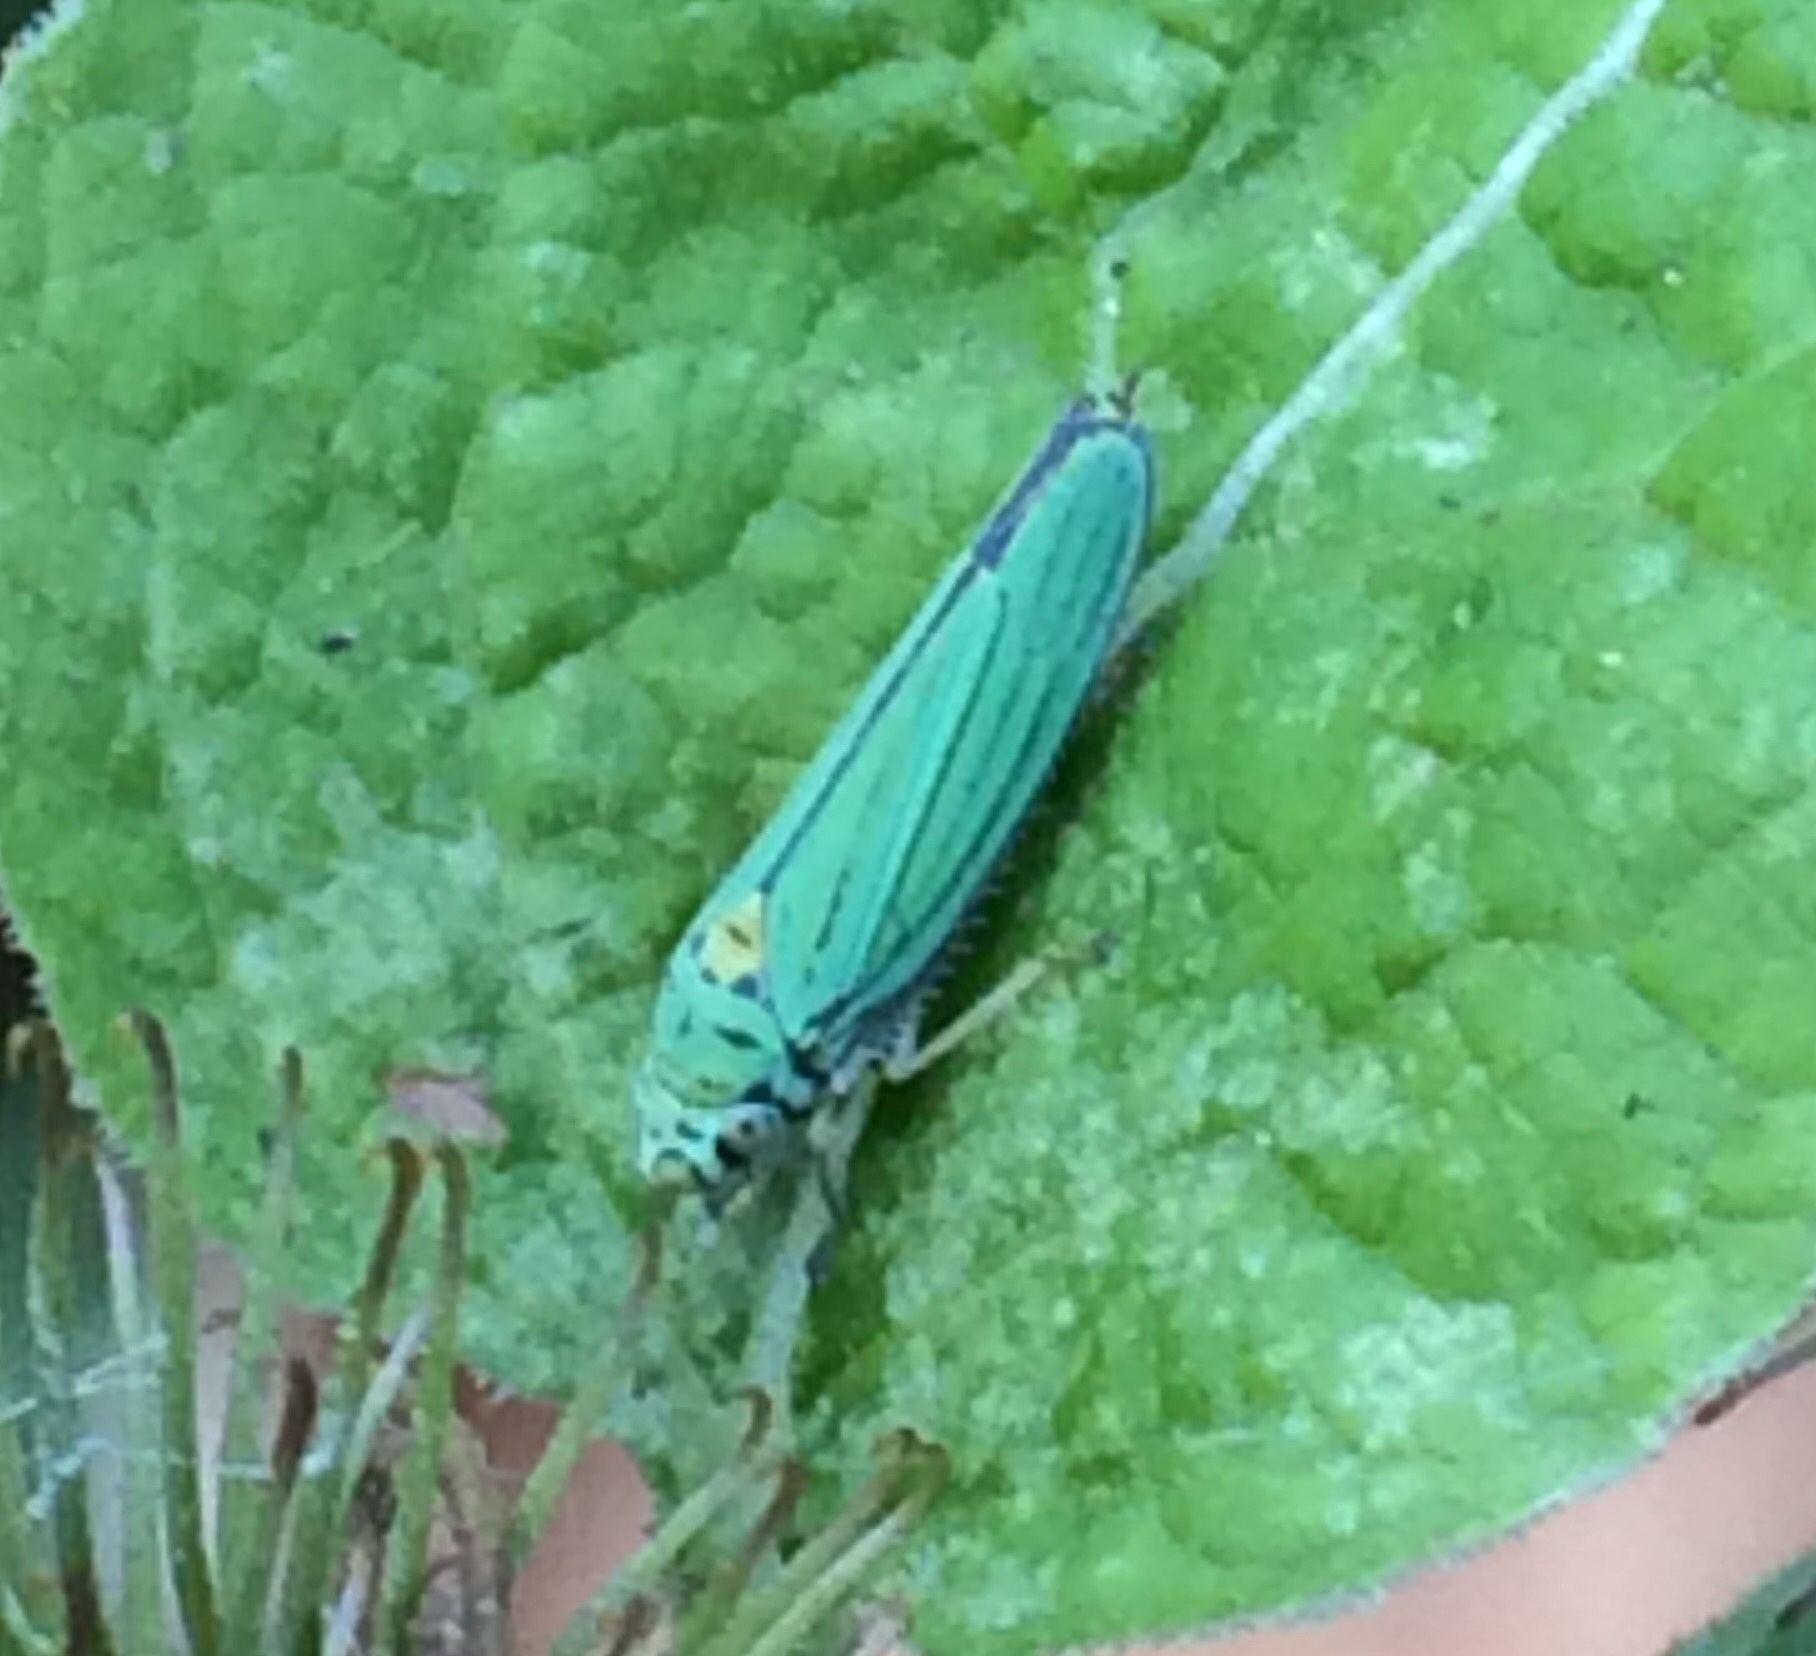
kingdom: Animalia
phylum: Arthropoda
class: Insecta
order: Hemiptera
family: Cicadellidae
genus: Graphocephala
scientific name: Graphocephala atropunctata
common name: Blue-green sharpshooter
